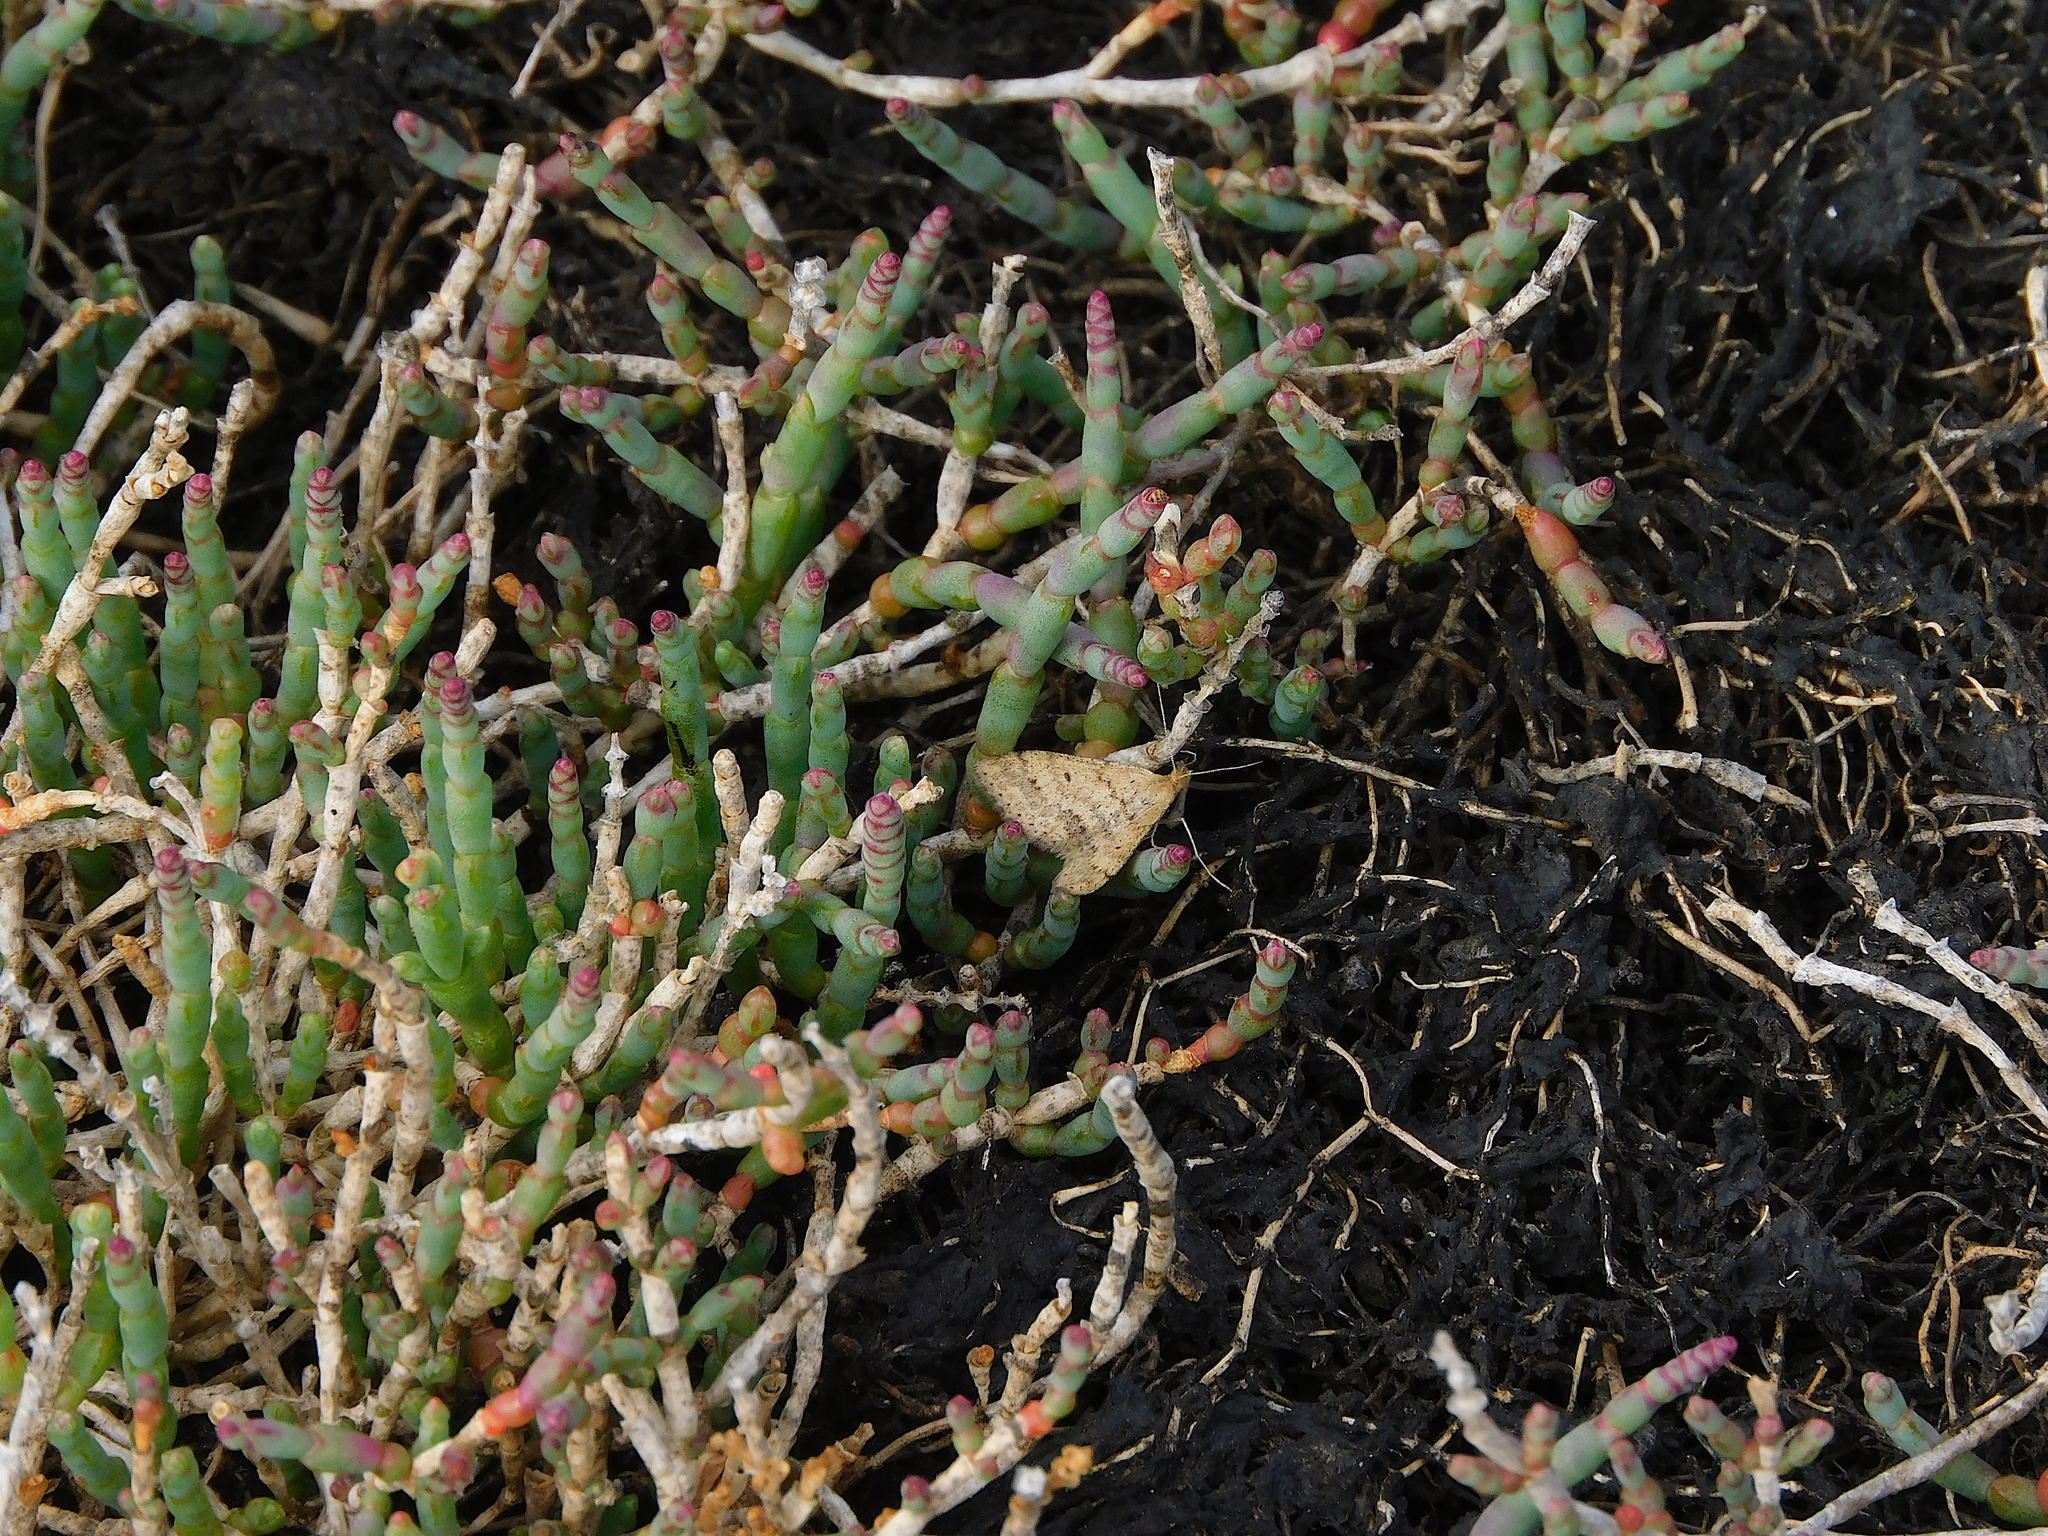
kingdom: Animalia
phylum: Arthropoda
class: Insecta
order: Lepidoptera
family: Geometridae
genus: Scopula
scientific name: Scopula rubraria
